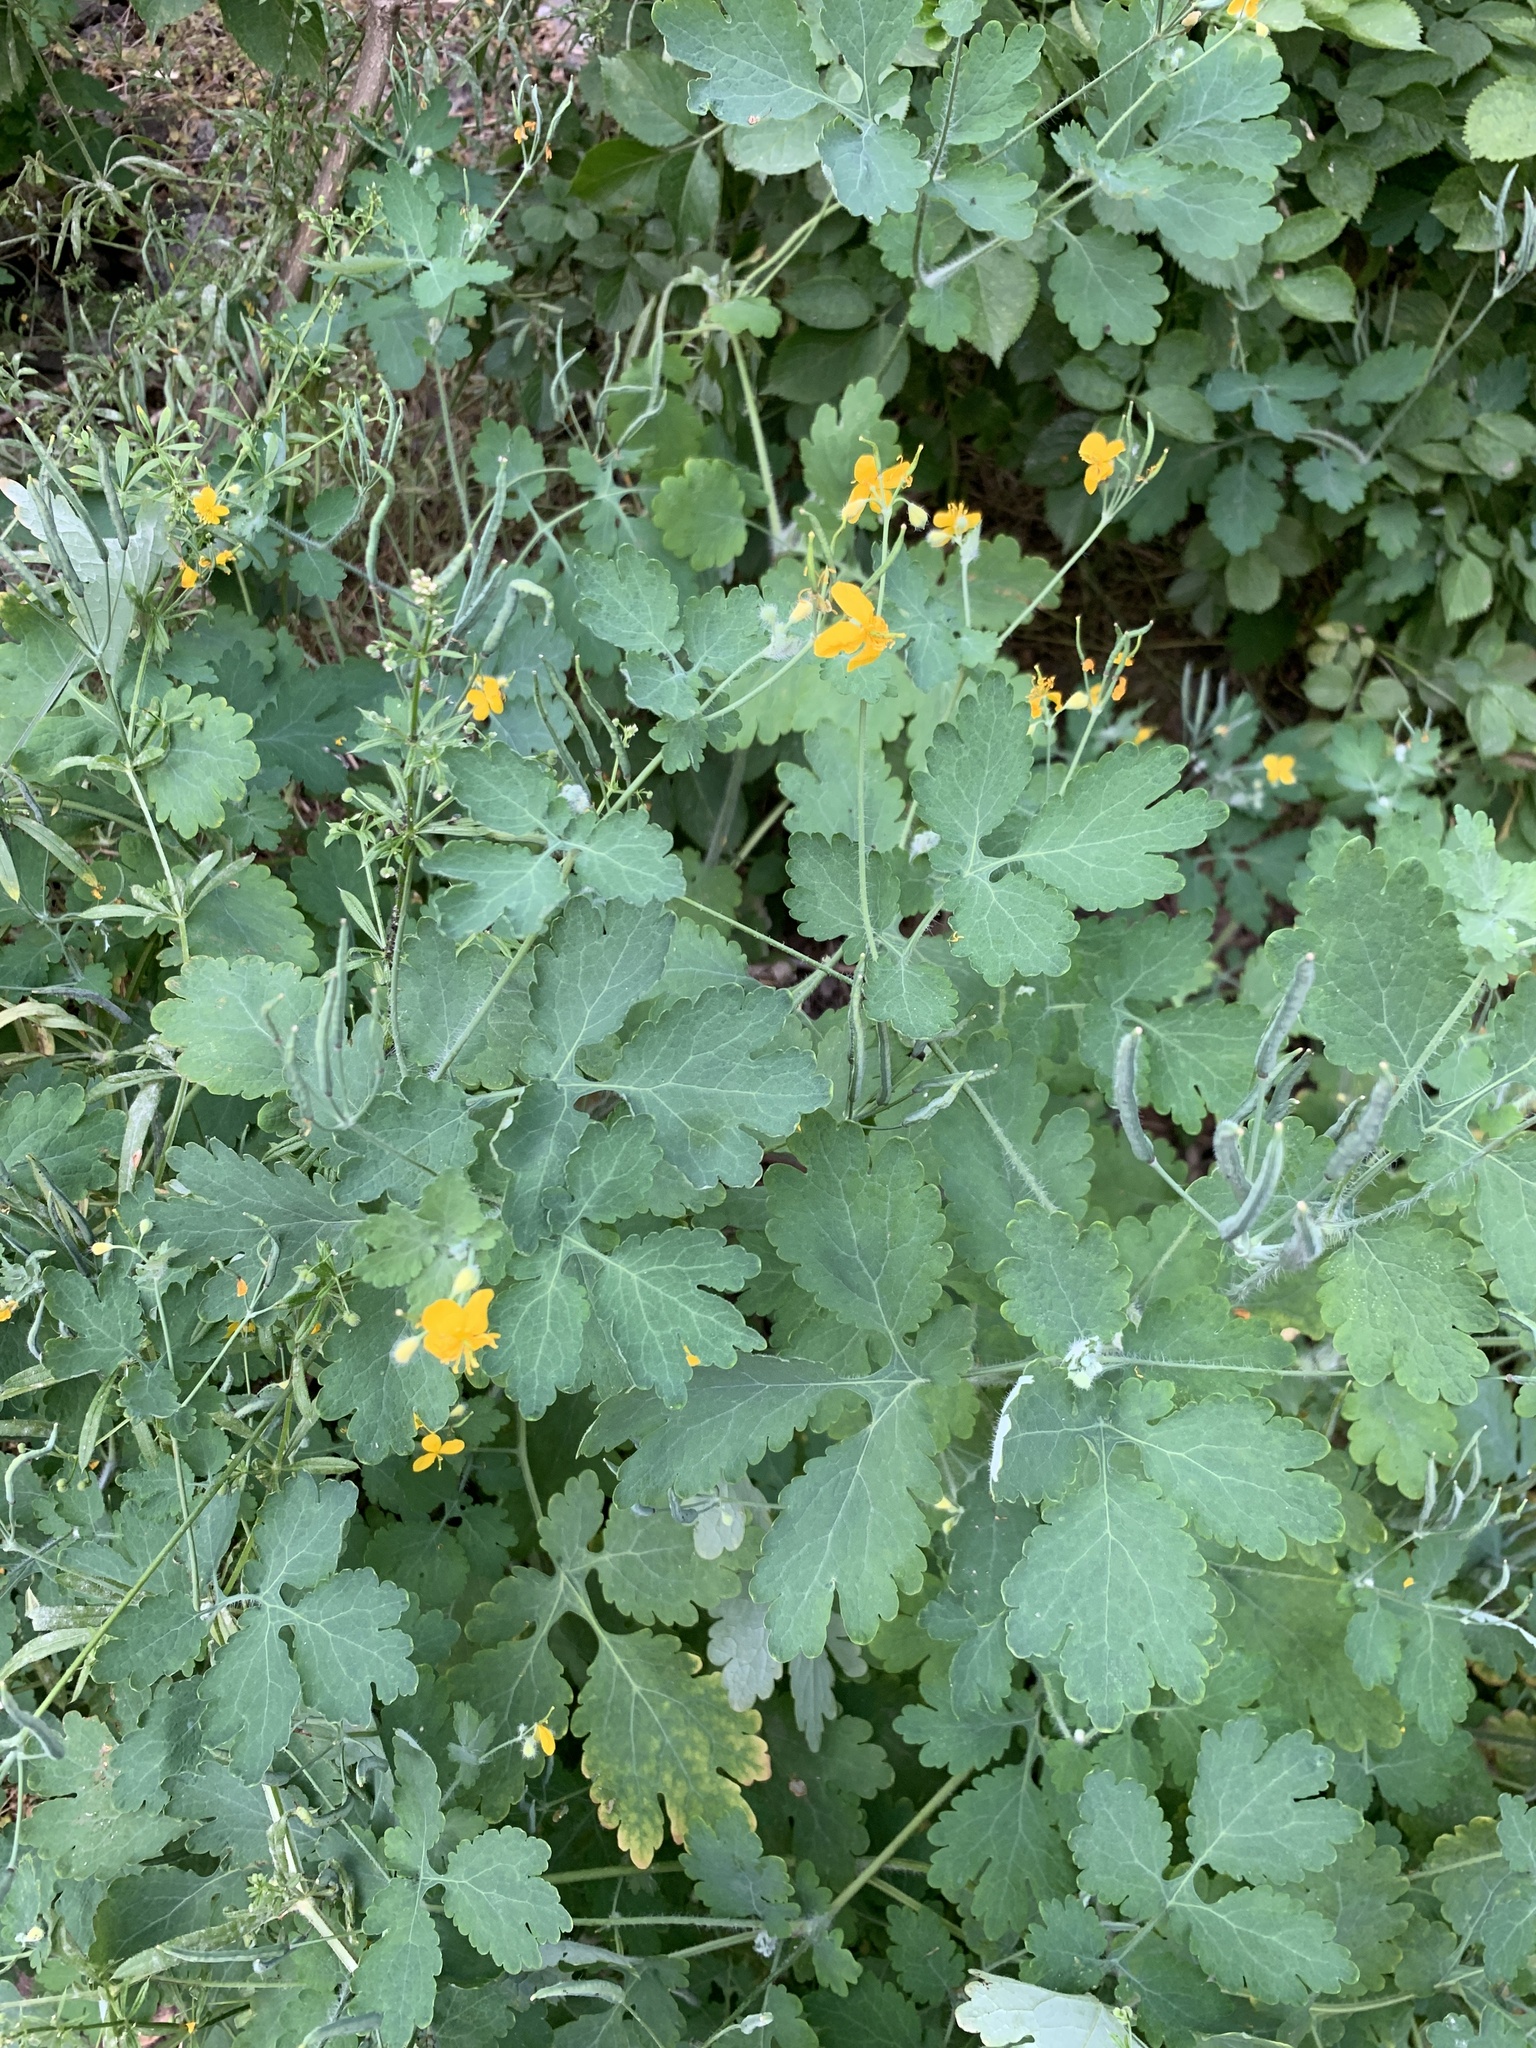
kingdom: Plantae
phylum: Tracheophyta
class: Magnoliopsida
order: Ranunculales
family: Papaveraceae
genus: Chelidonium
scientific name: Chelidonium majus
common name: Greater celandine
